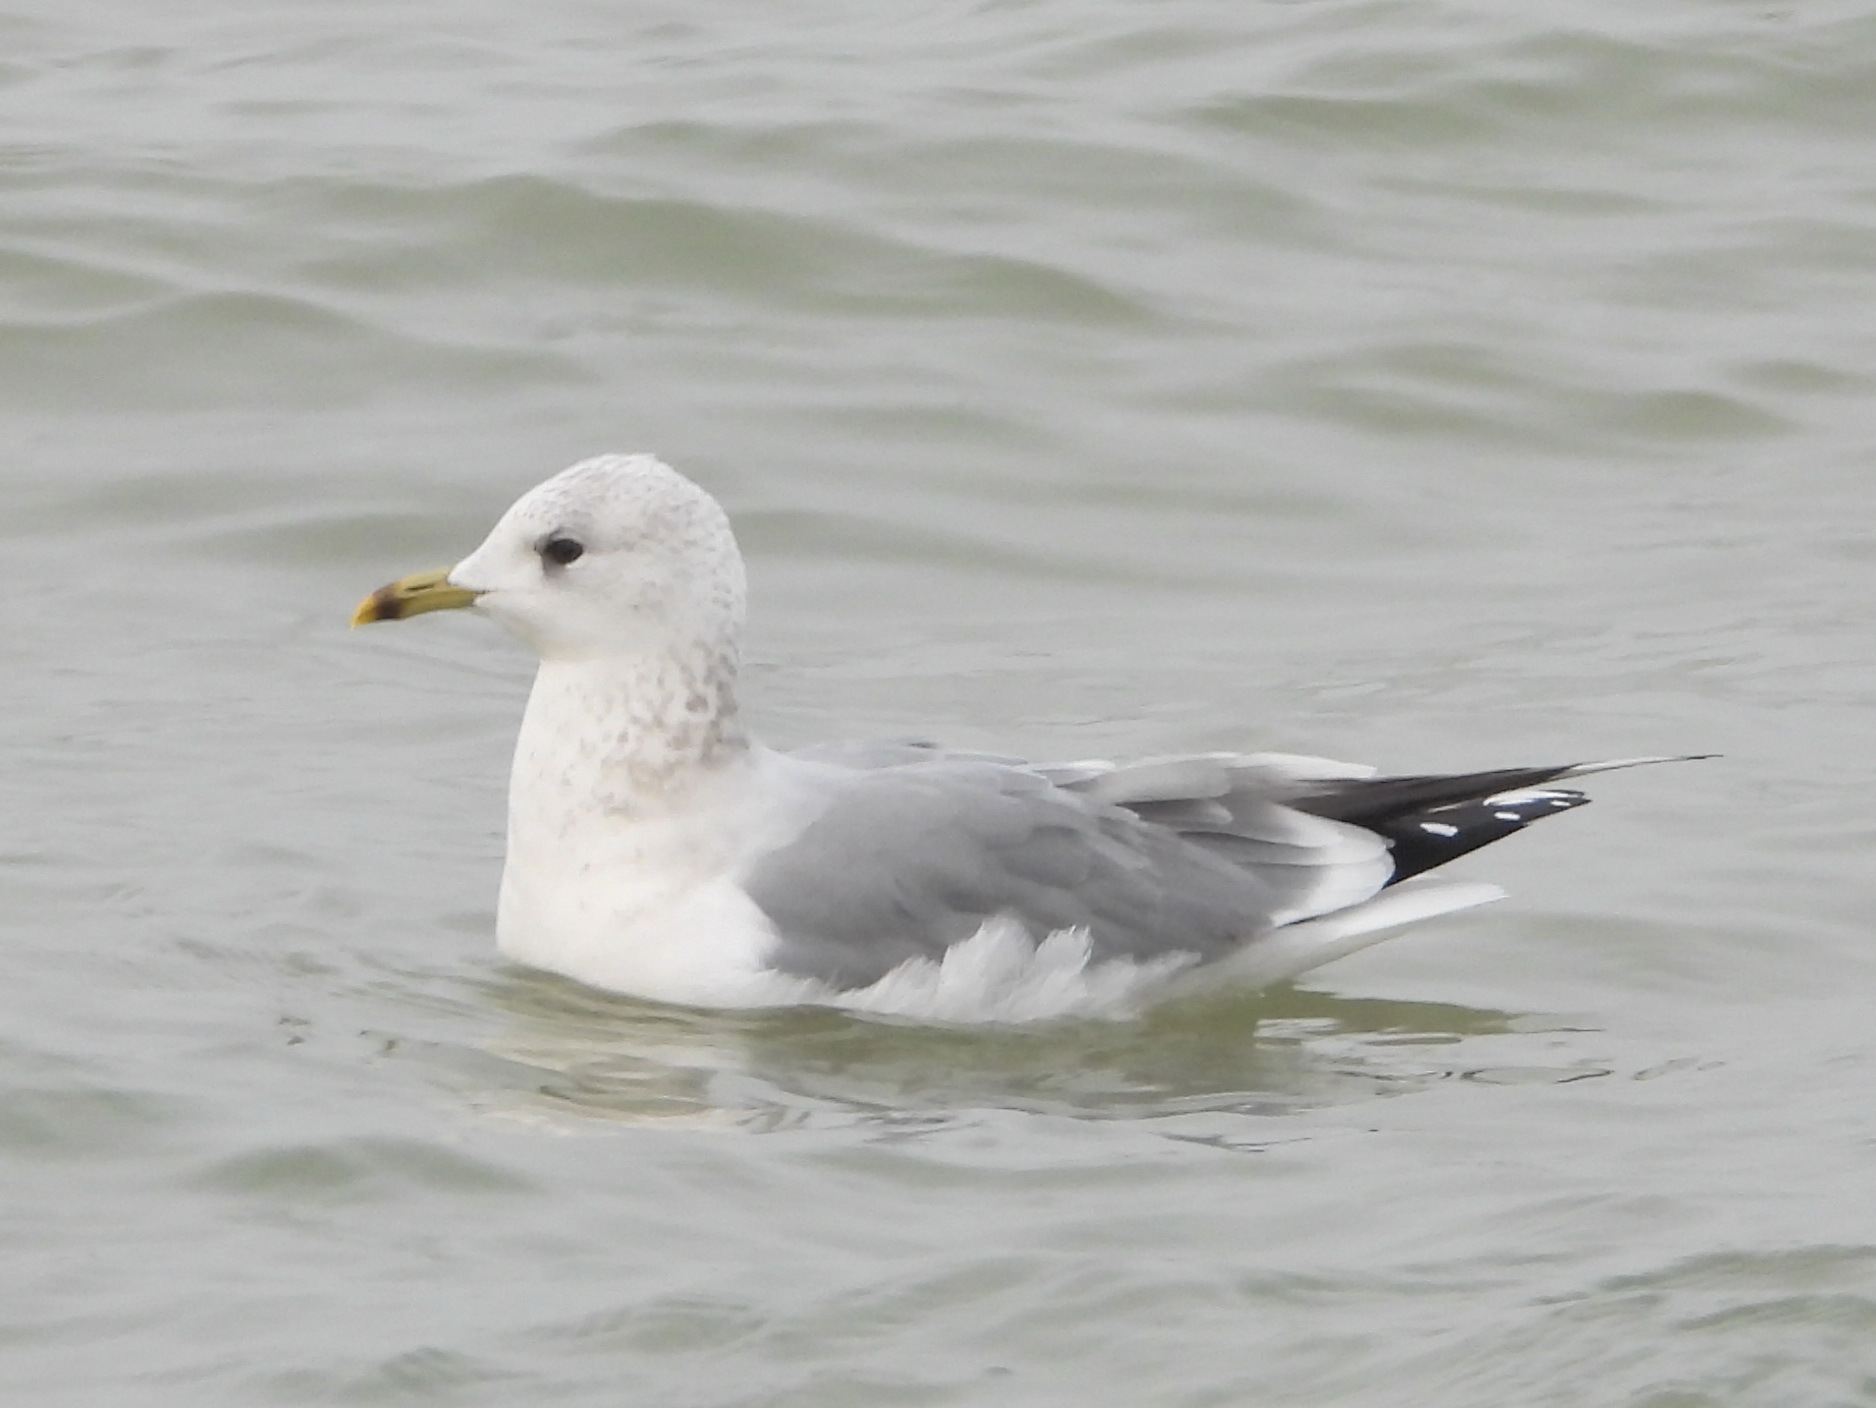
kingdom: Animalia
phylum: Chordata
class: Aves
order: Charadriiformes
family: Laridae
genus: Larus
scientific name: Larus canus
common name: Mew gull
